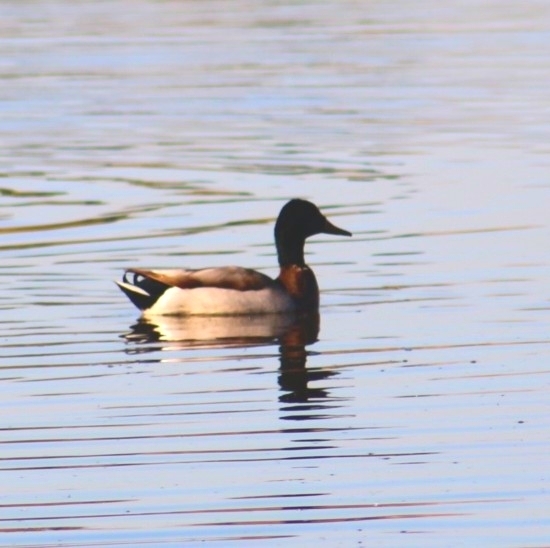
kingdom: Animalia
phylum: Chordata
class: Aves
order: Anseriformes
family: Anatidae
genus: Anas
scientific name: Anas platyrhynchos
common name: Mallard
